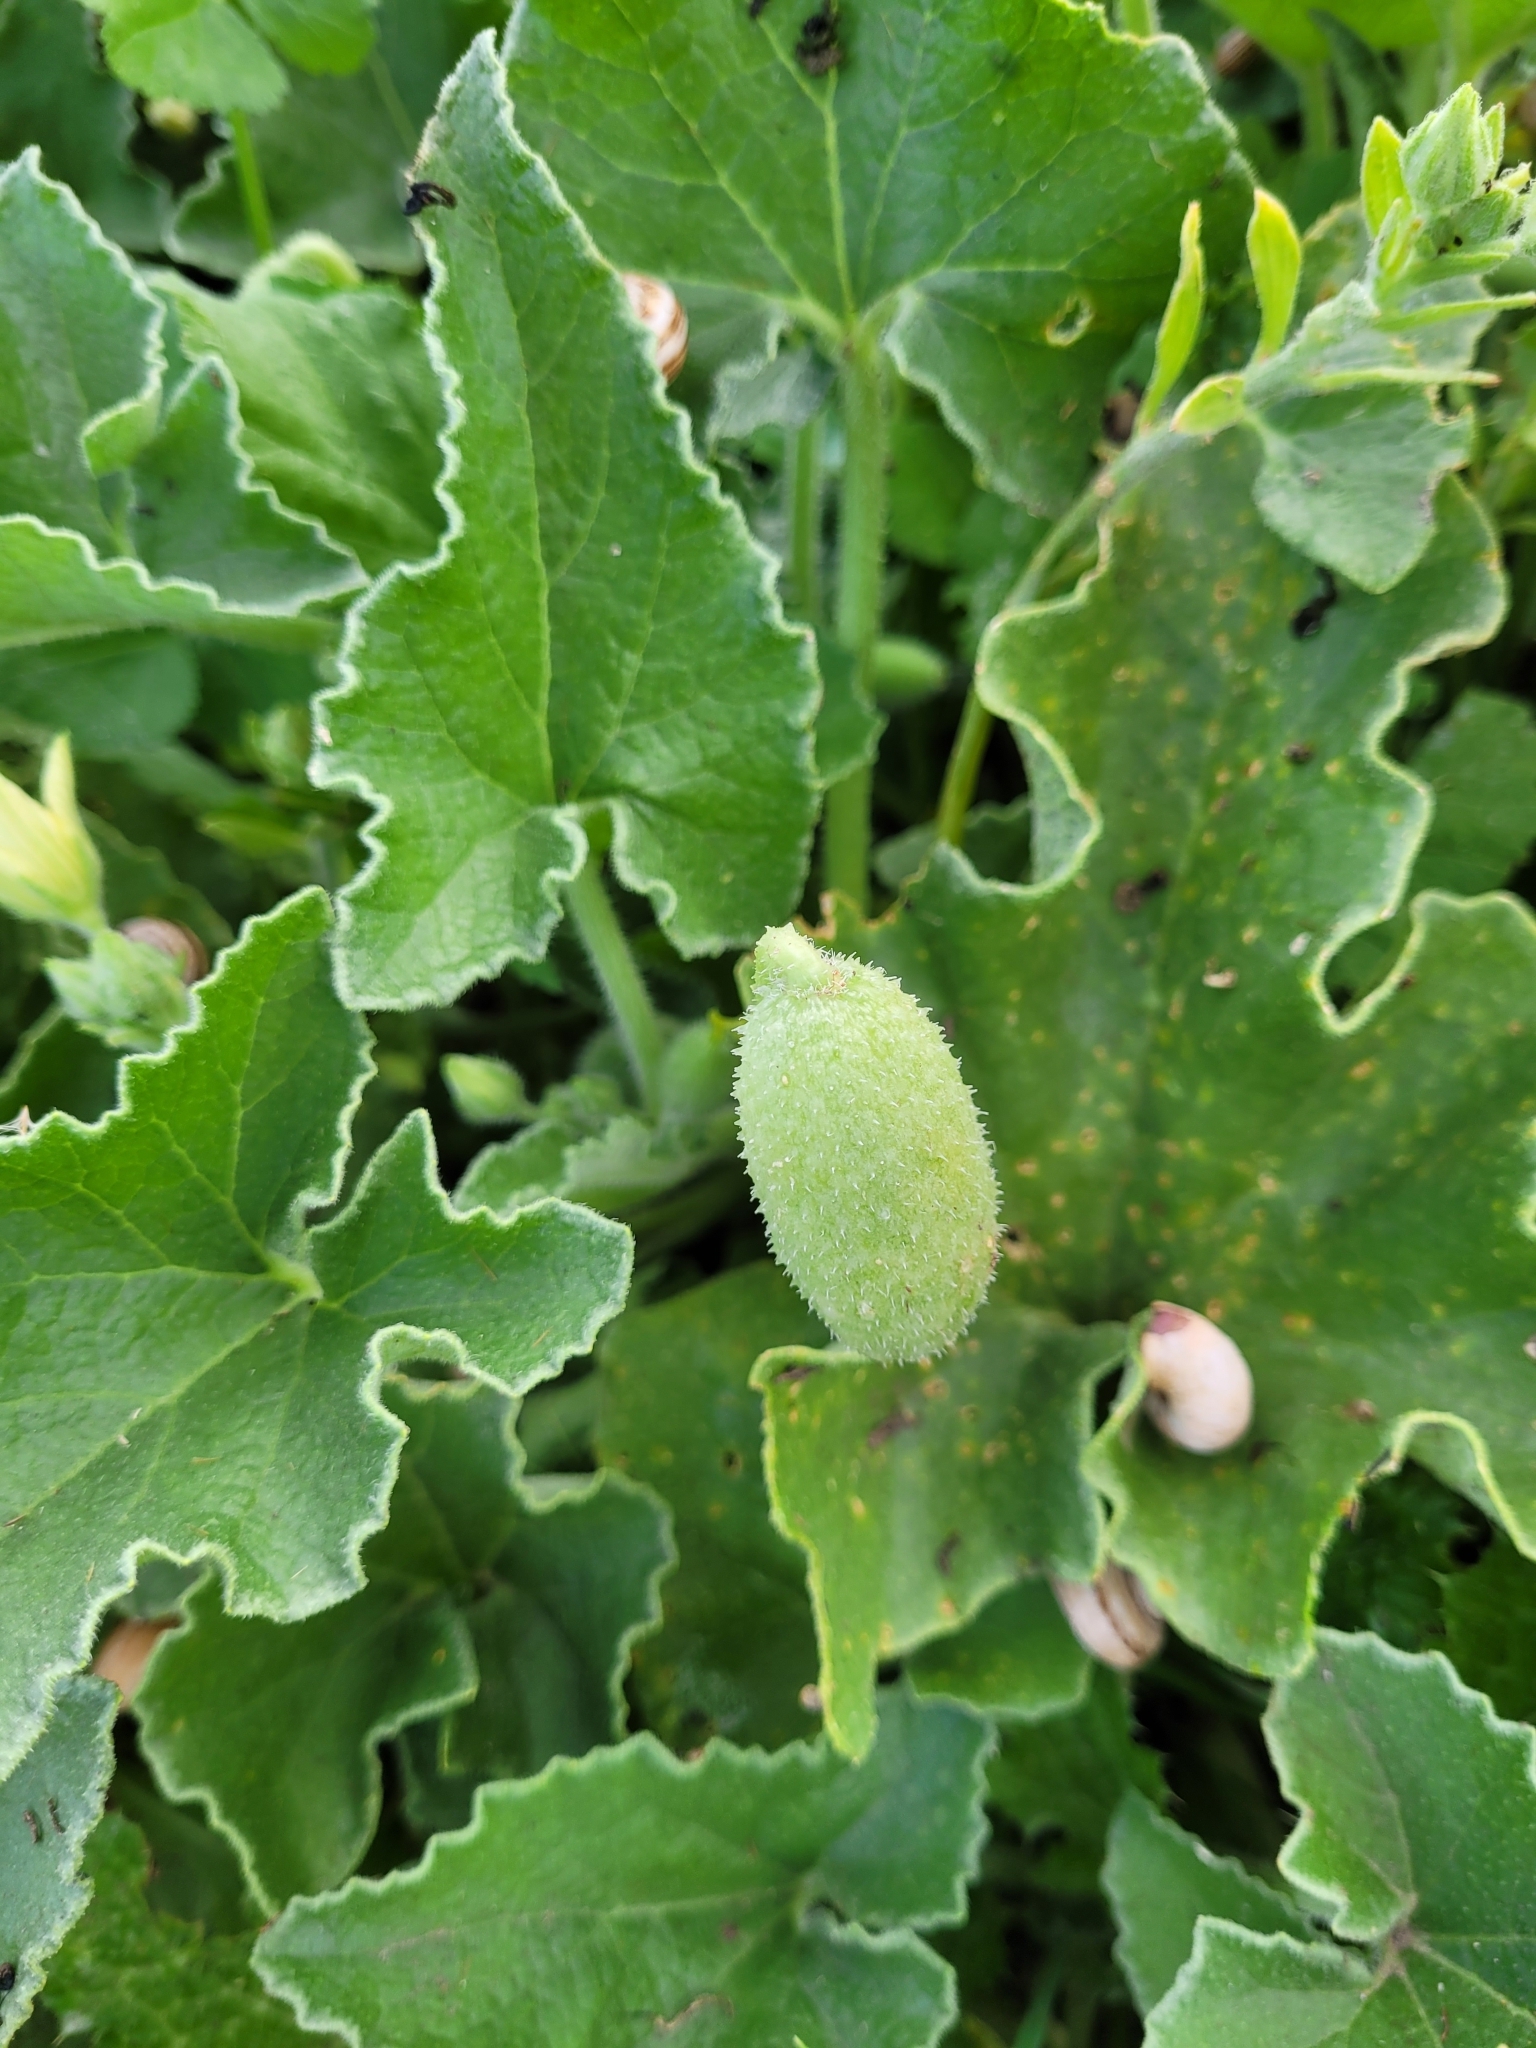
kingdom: Plantae
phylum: Tracheophyta
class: Magnoliopsida
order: Cucurbitales
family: Cucurbitaceae
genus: Ecballium
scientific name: Ecballium elaterium
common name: Squirting cucumber
